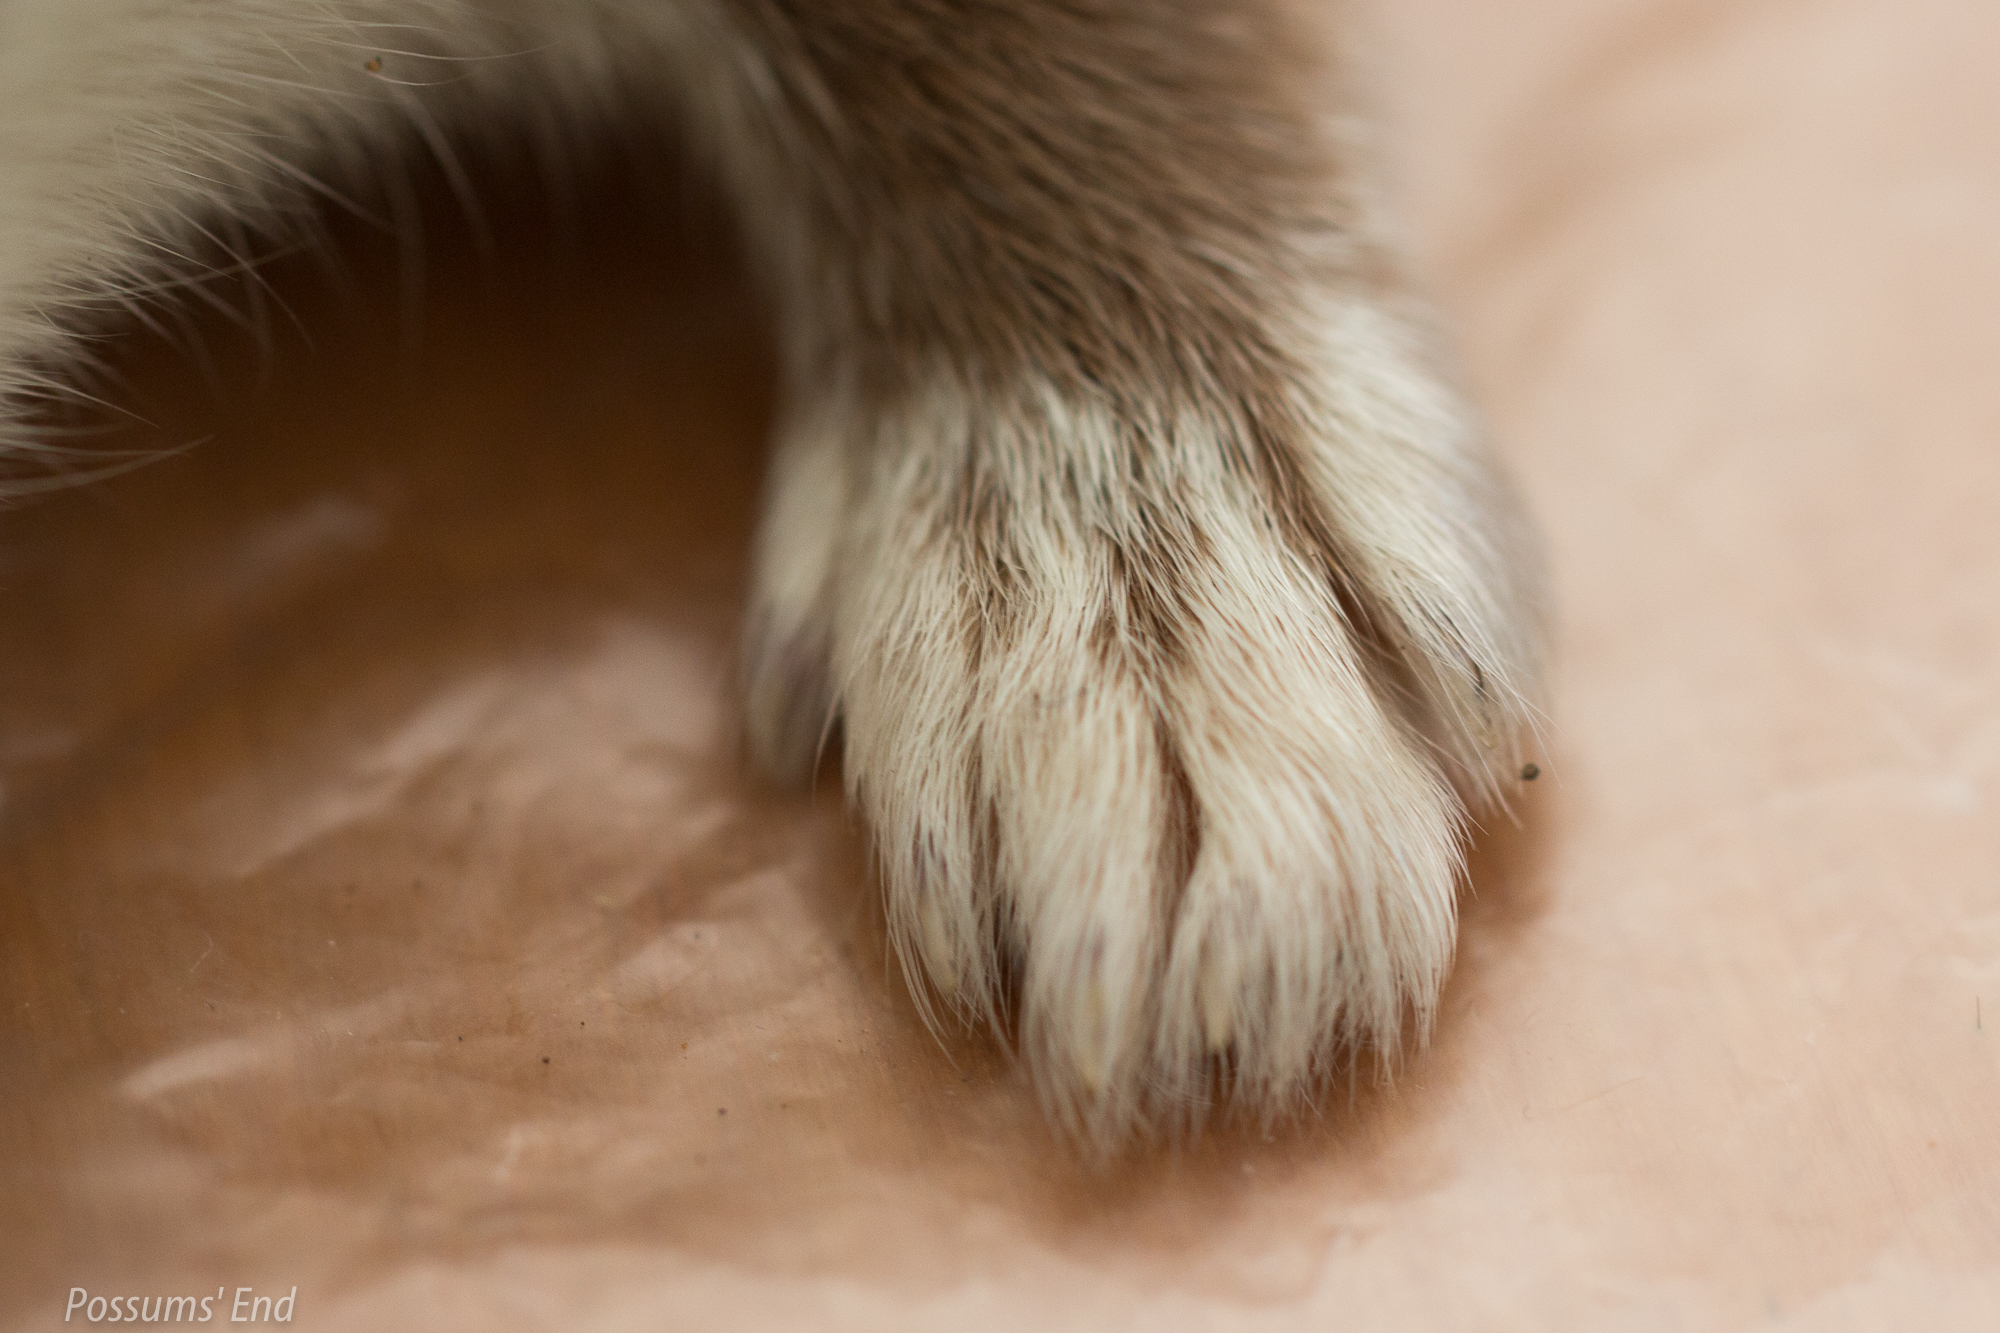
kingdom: Animalia
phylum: Chordata
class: Mammalia
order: Carnivora
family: Mustelidae
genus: Mustela
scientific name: Mustela erminea
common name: Stoat
